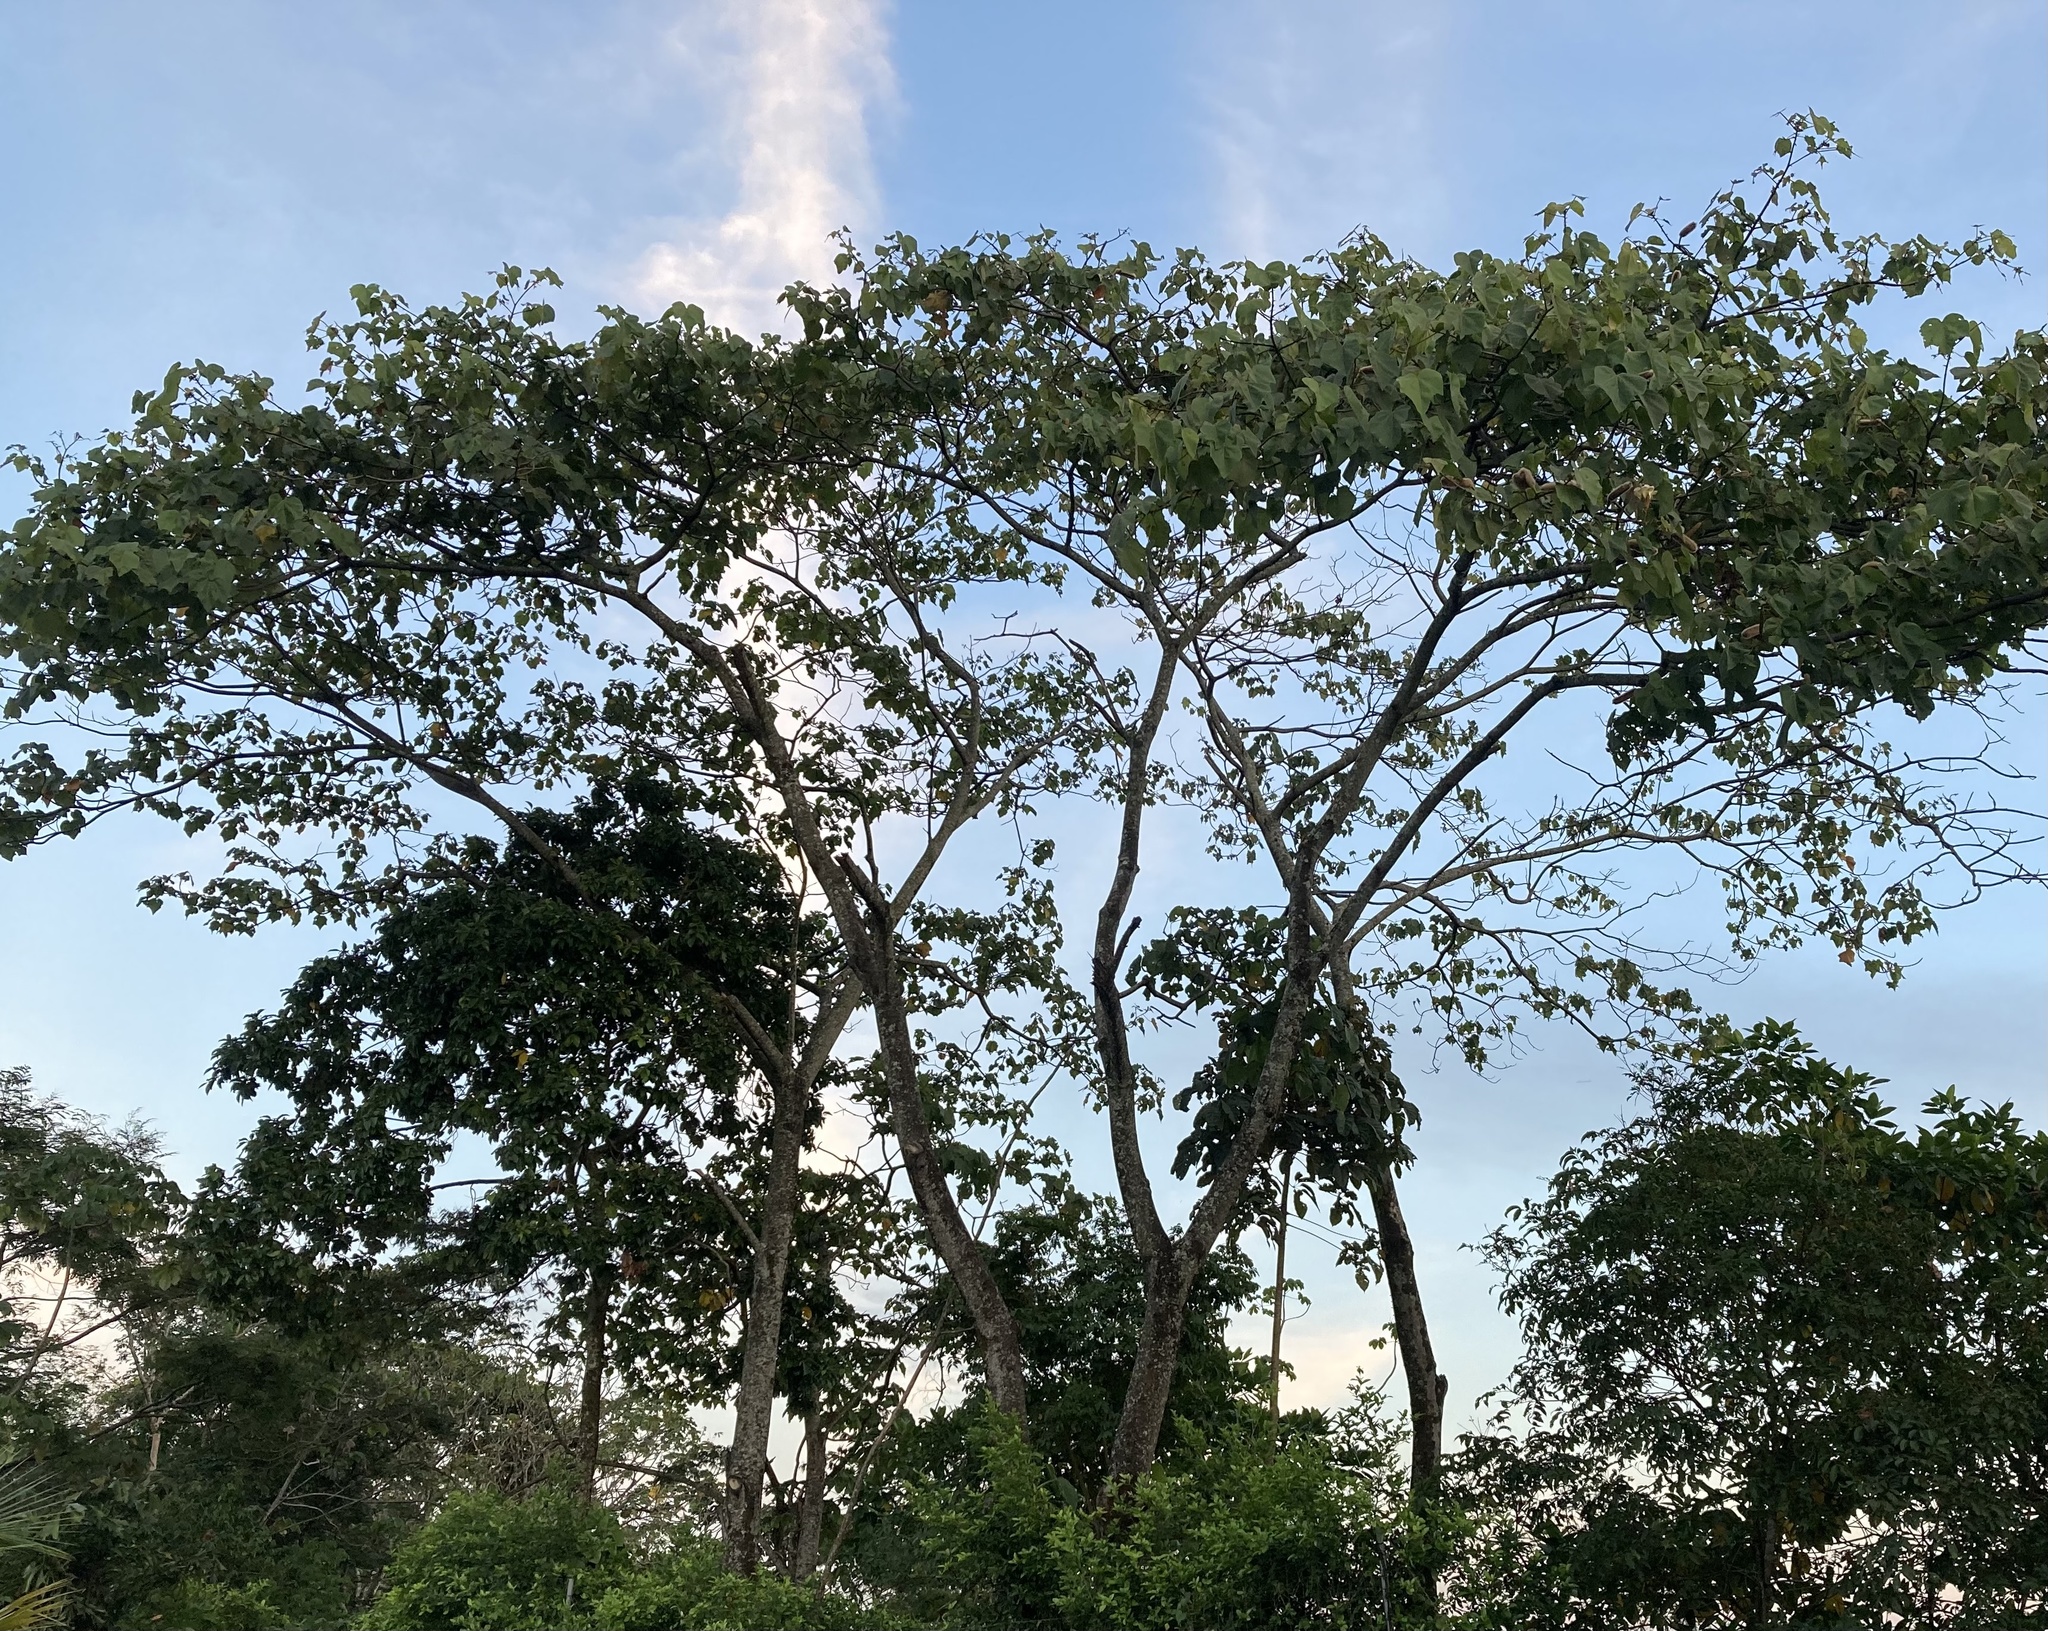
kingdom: Plantae
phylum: Tracheophyta
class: Magnoliopsida
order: Malvales
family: Malvaceae
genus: Ochroma
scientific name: Ochroma pyramidale
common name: Balsa
